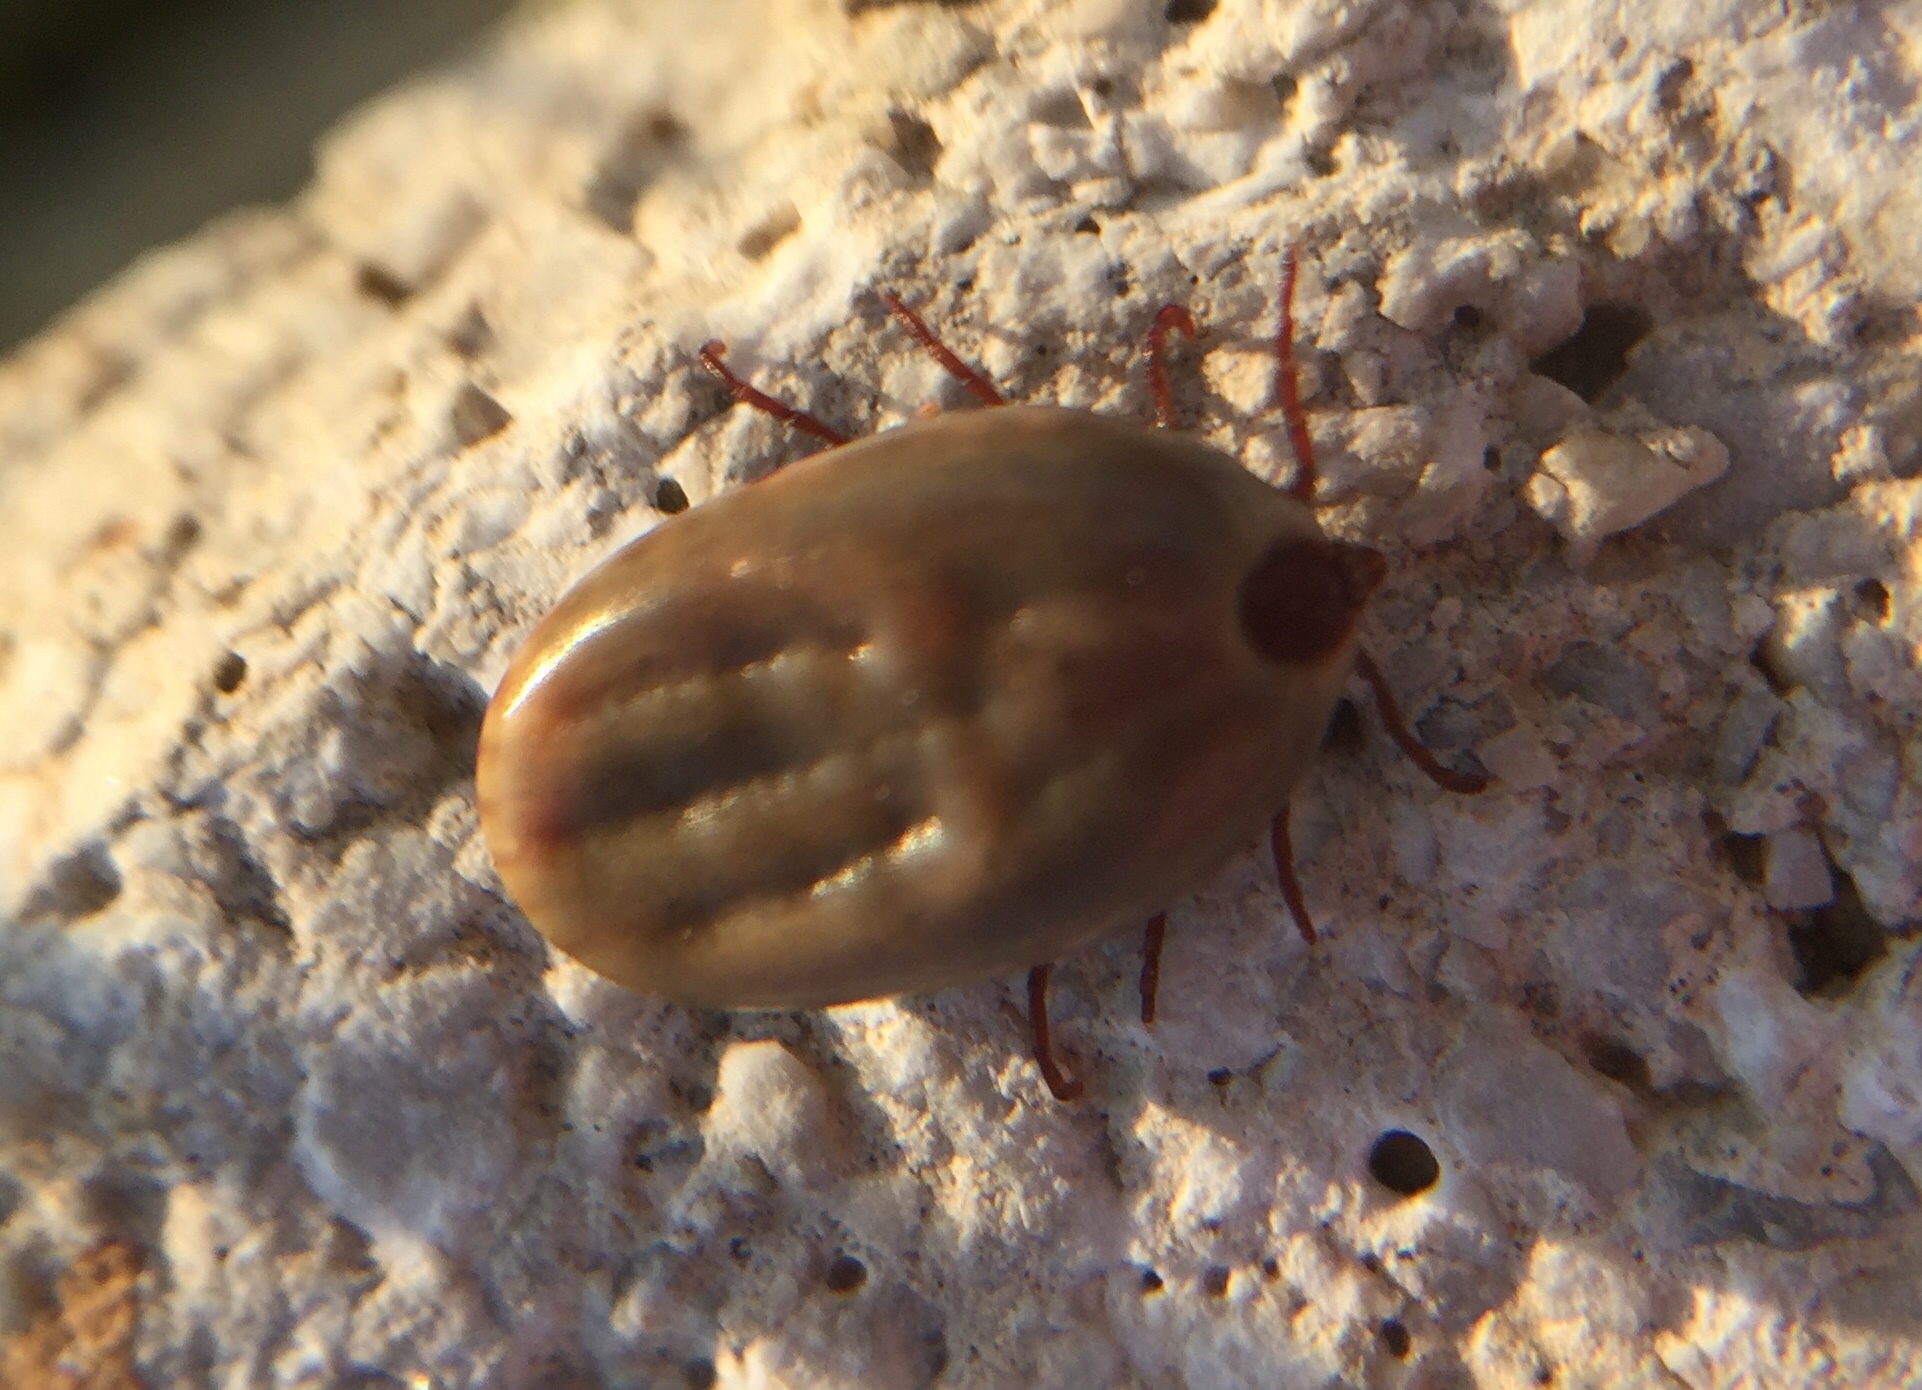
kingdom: Animalia
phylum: Arthropoda
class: Arachnida
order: Ixodida
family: Ixodidae
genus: Rhipicephalus
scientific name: Rhipicephalus
